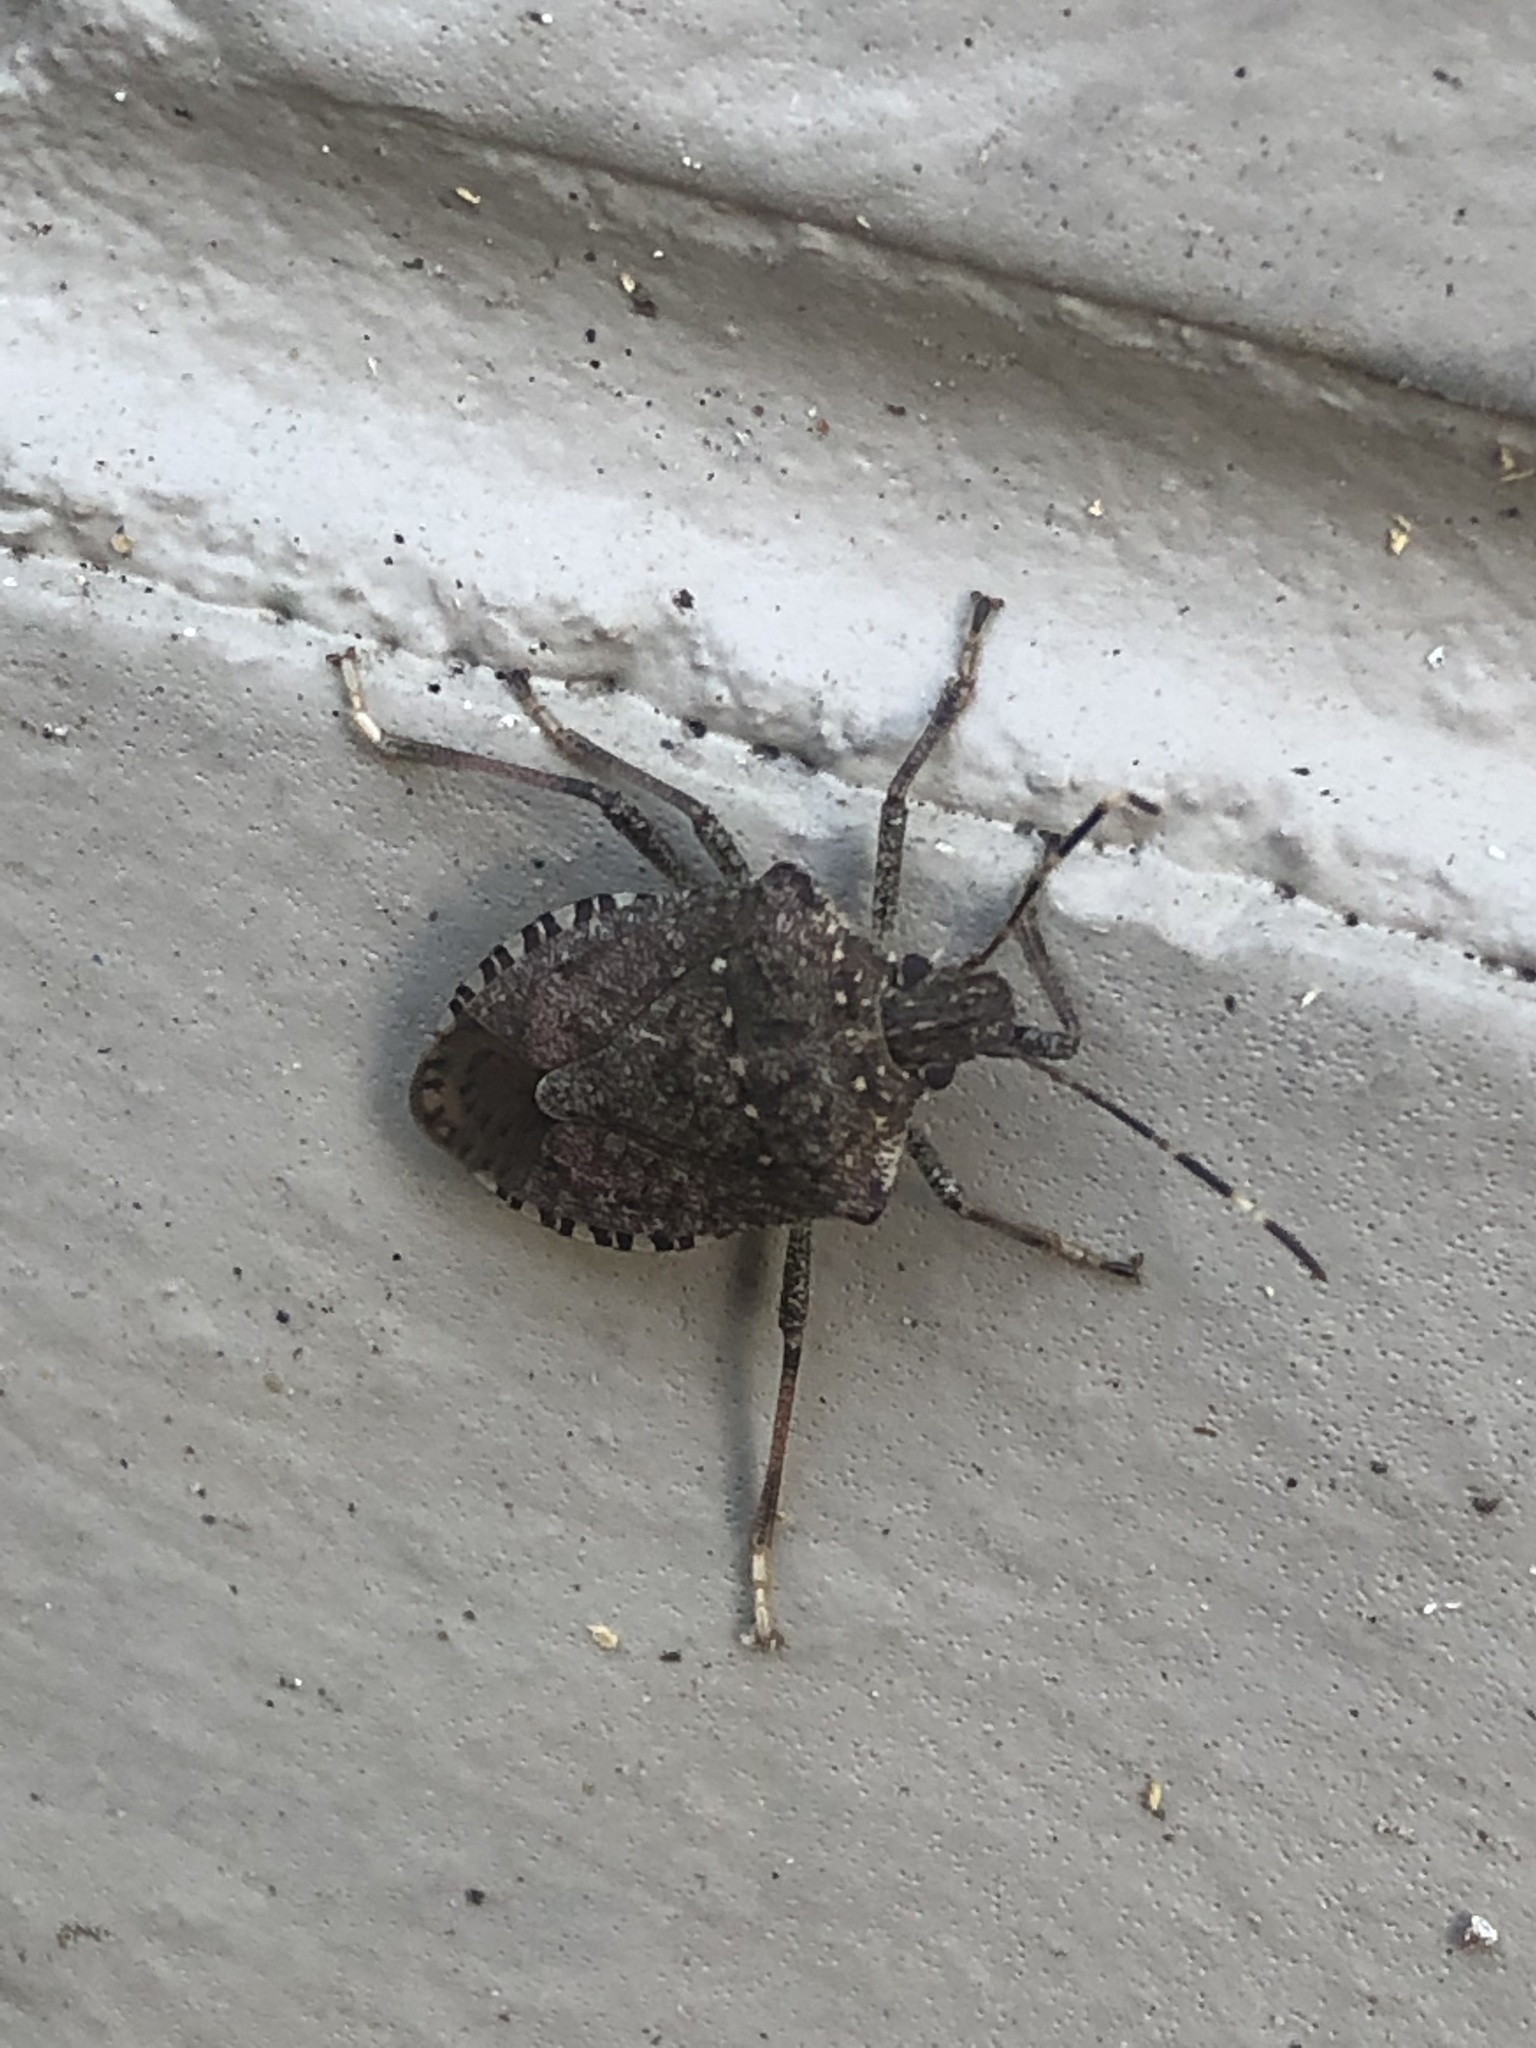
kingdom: Animalia
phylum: Arthropoda
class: Insecta
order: Hemiptera
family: Pentatomidae
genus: Halyomorpha
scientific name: Halyomorpha halys
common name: Brown marmorated stink bug
